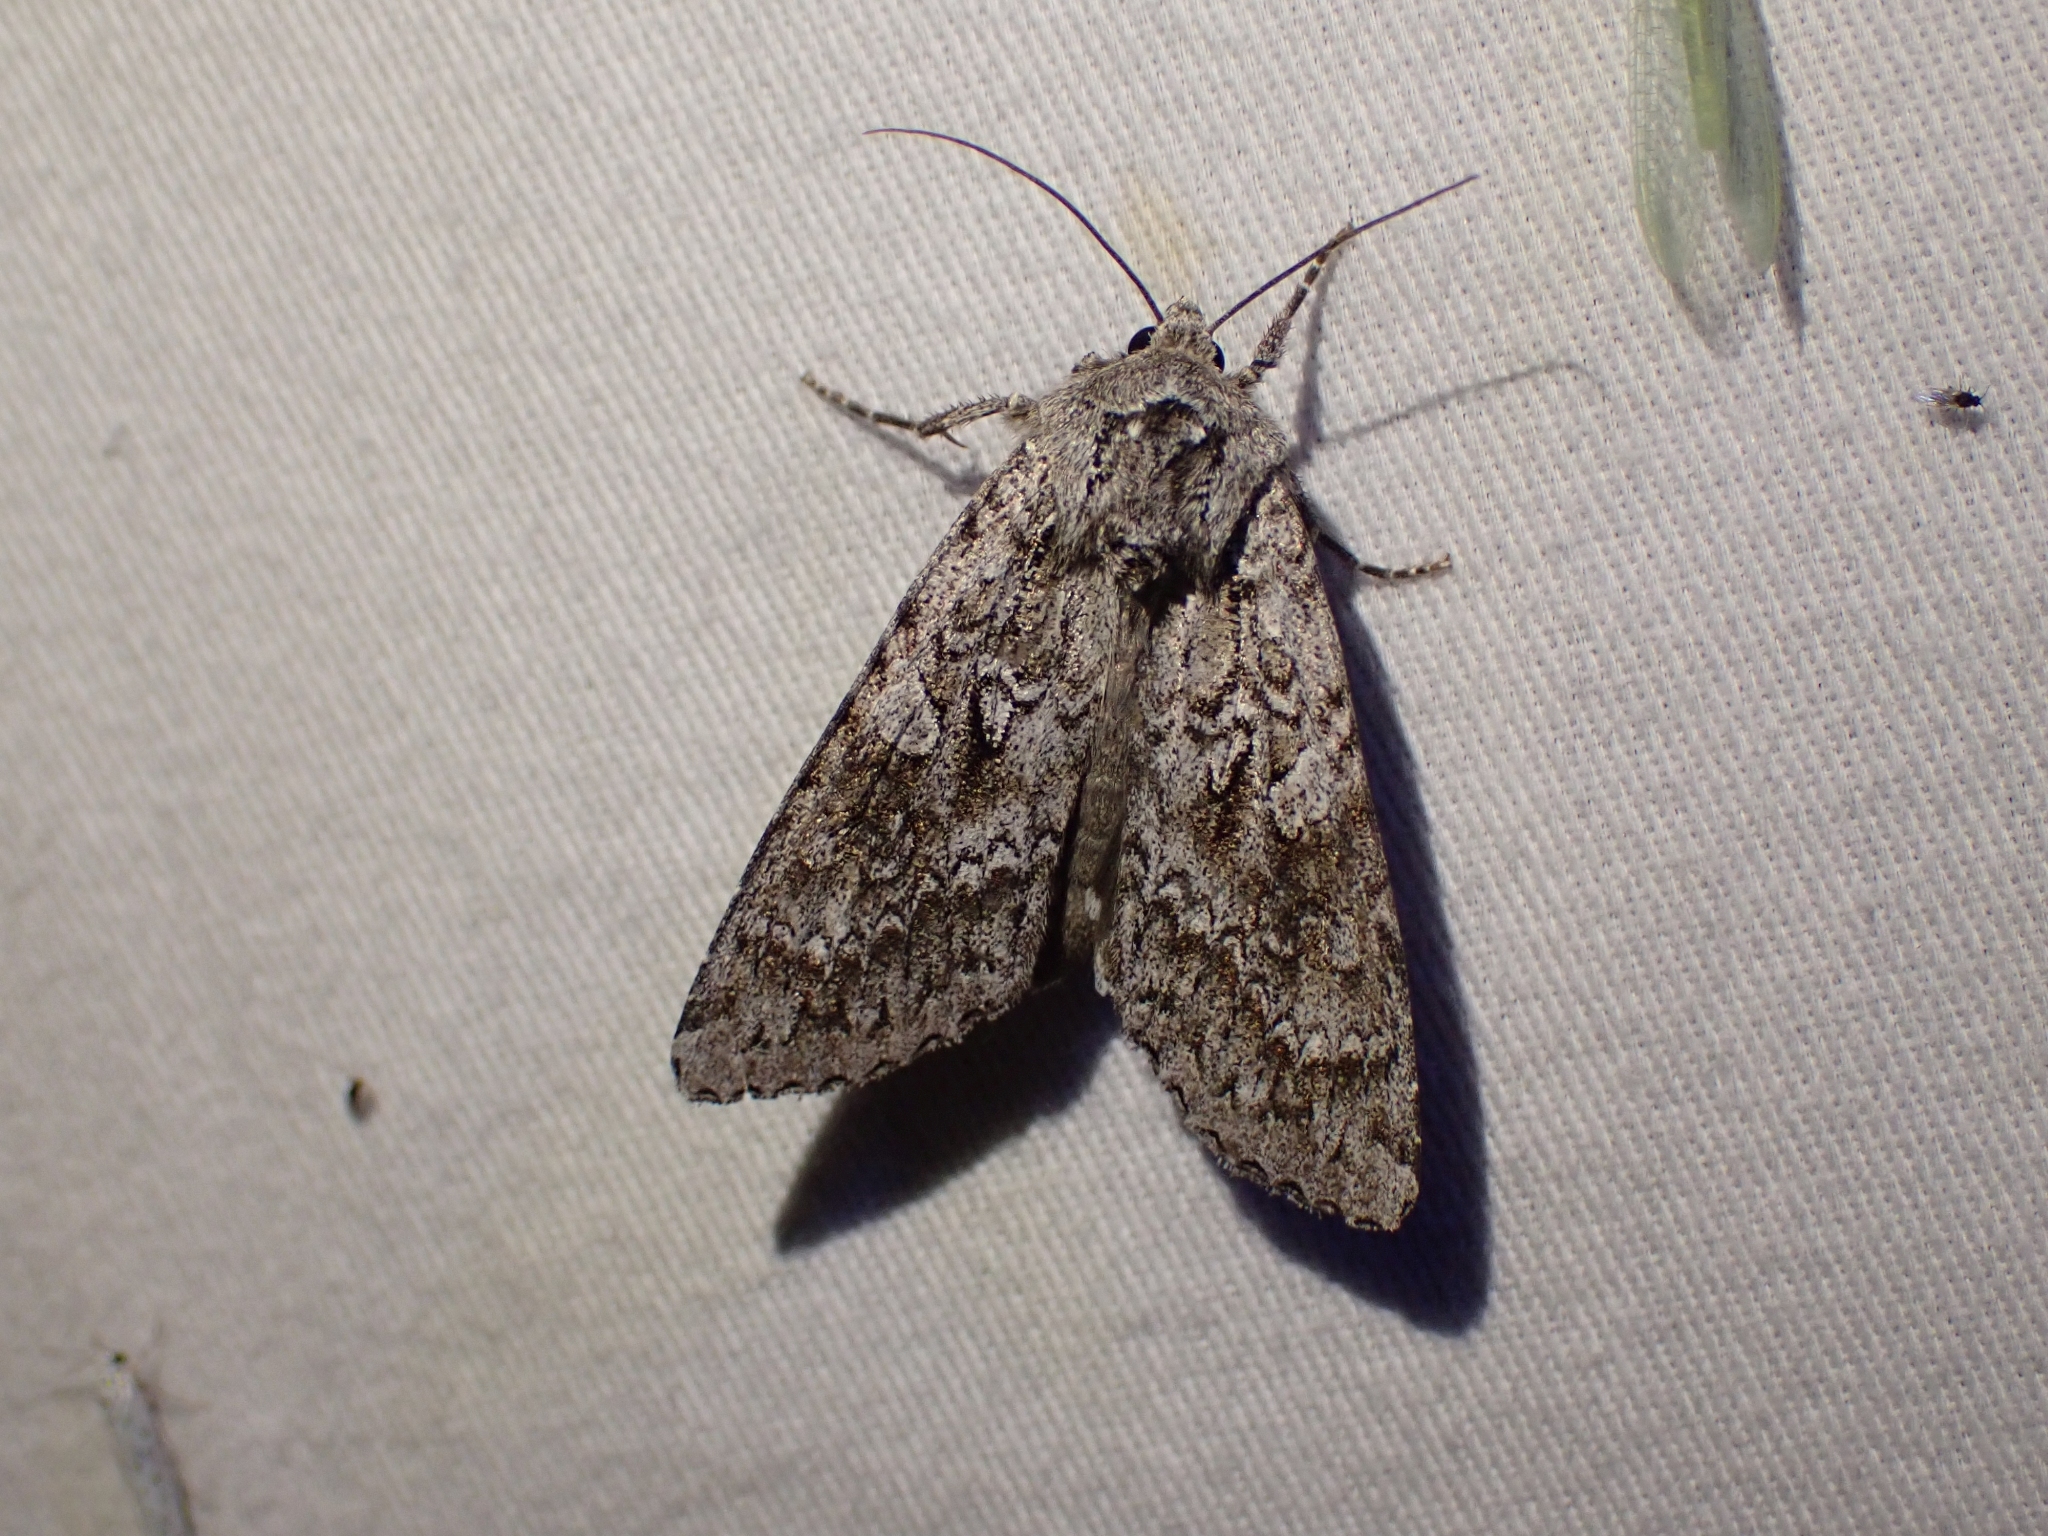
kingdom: Animalia
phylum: Arthropoda
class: Insecta
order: Lepidoptera
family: Noctuidae
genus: Eurois
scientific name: Eurois occulta
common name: Great brocade
